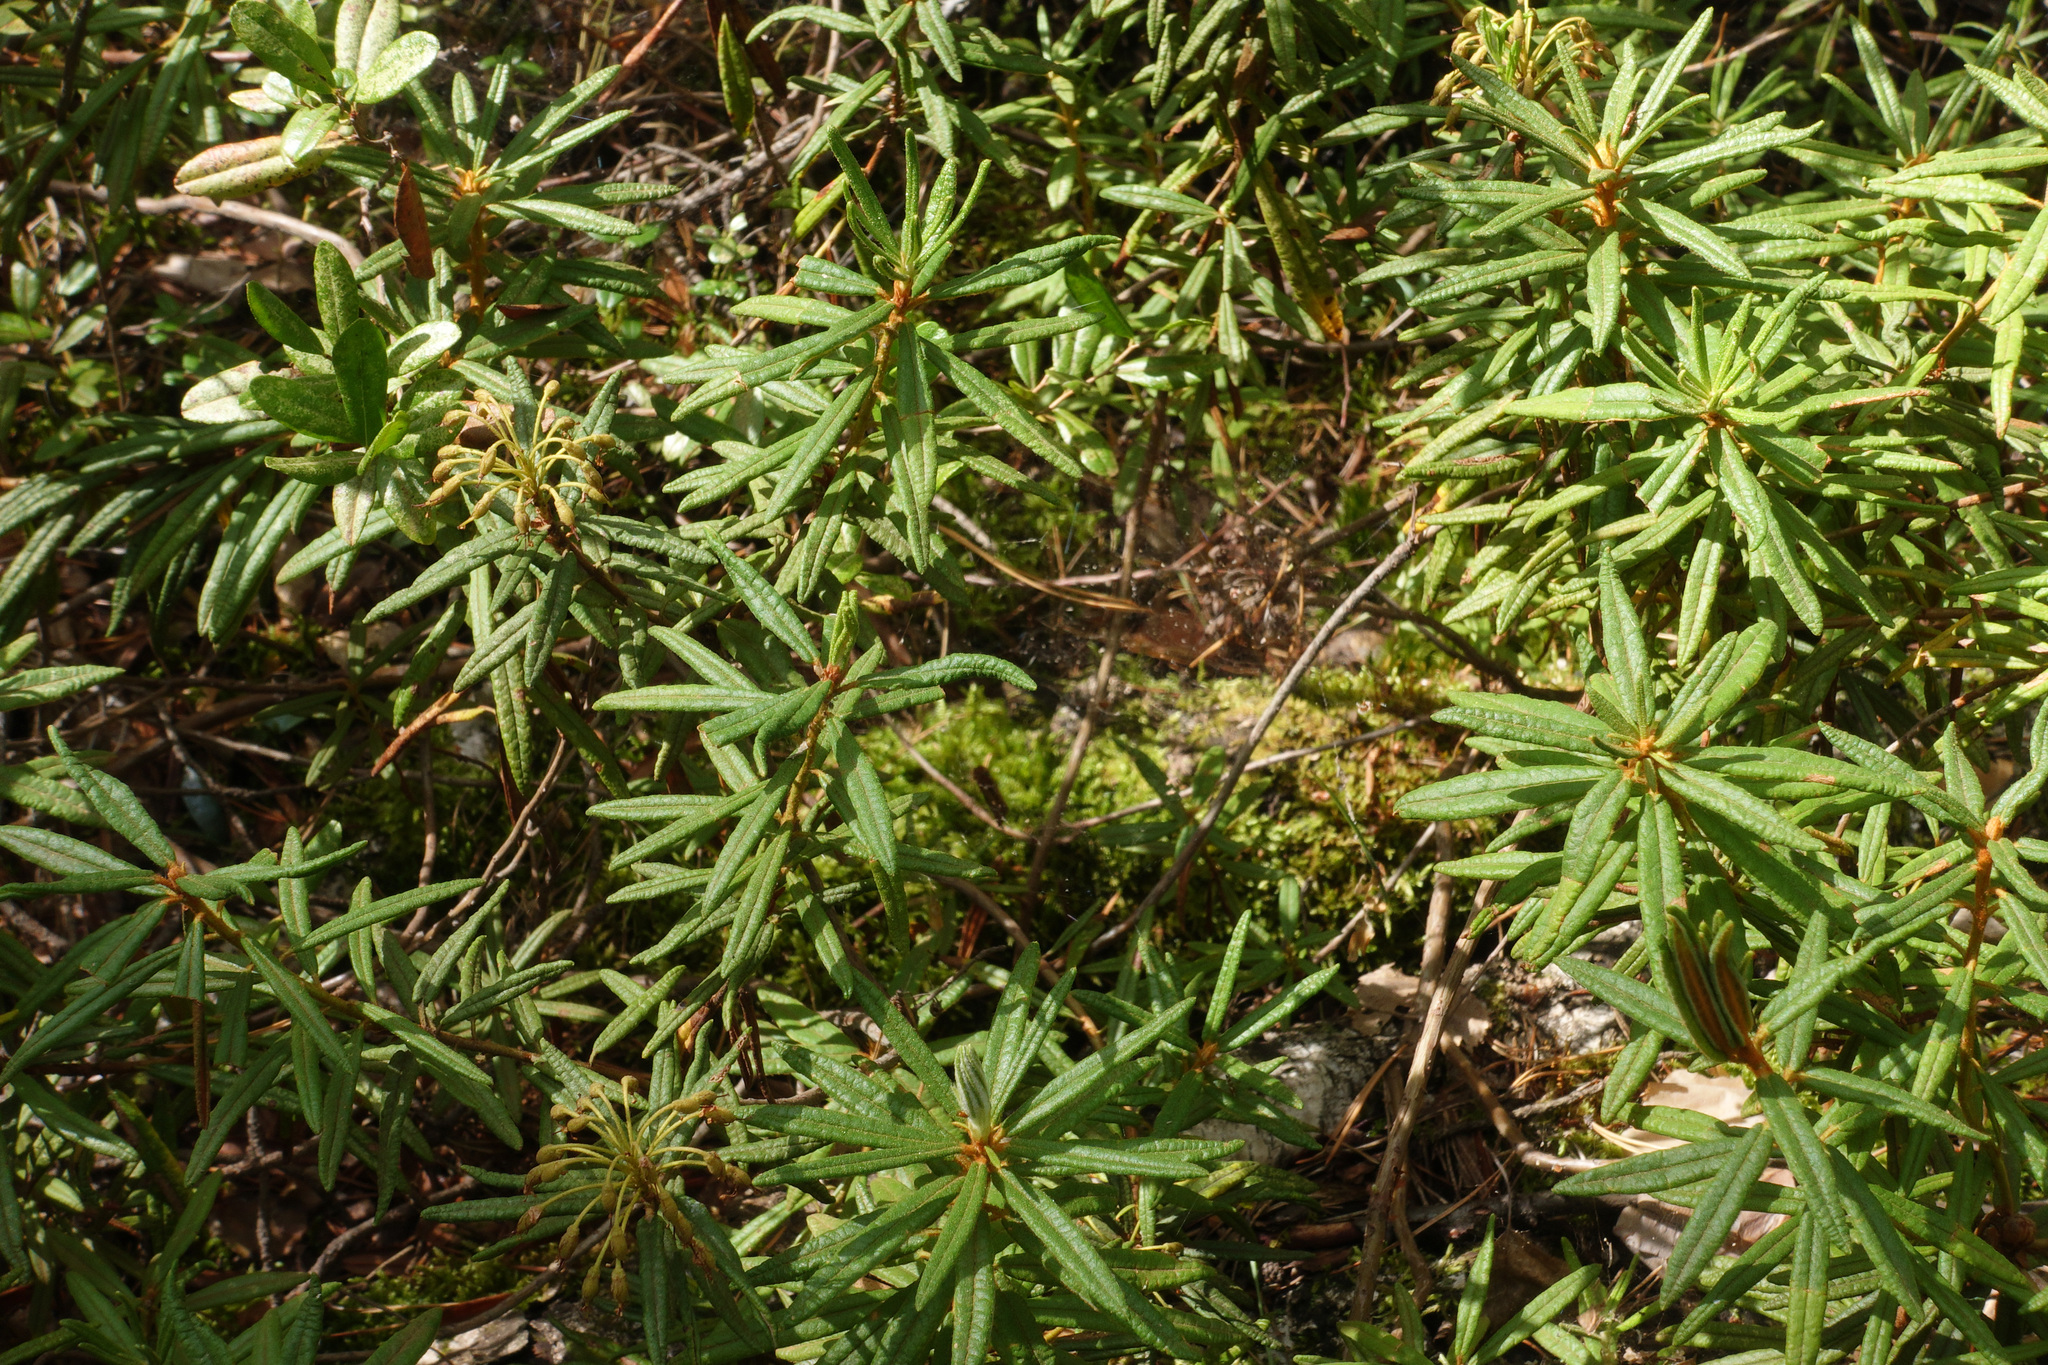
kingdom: Plantae
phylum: Tracheophyta
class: Magnoliopsida
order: Ericales
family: Ericaceae
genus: Rhododendron
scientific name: Rhododendron tomentosum
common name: Marsh labrador tea
